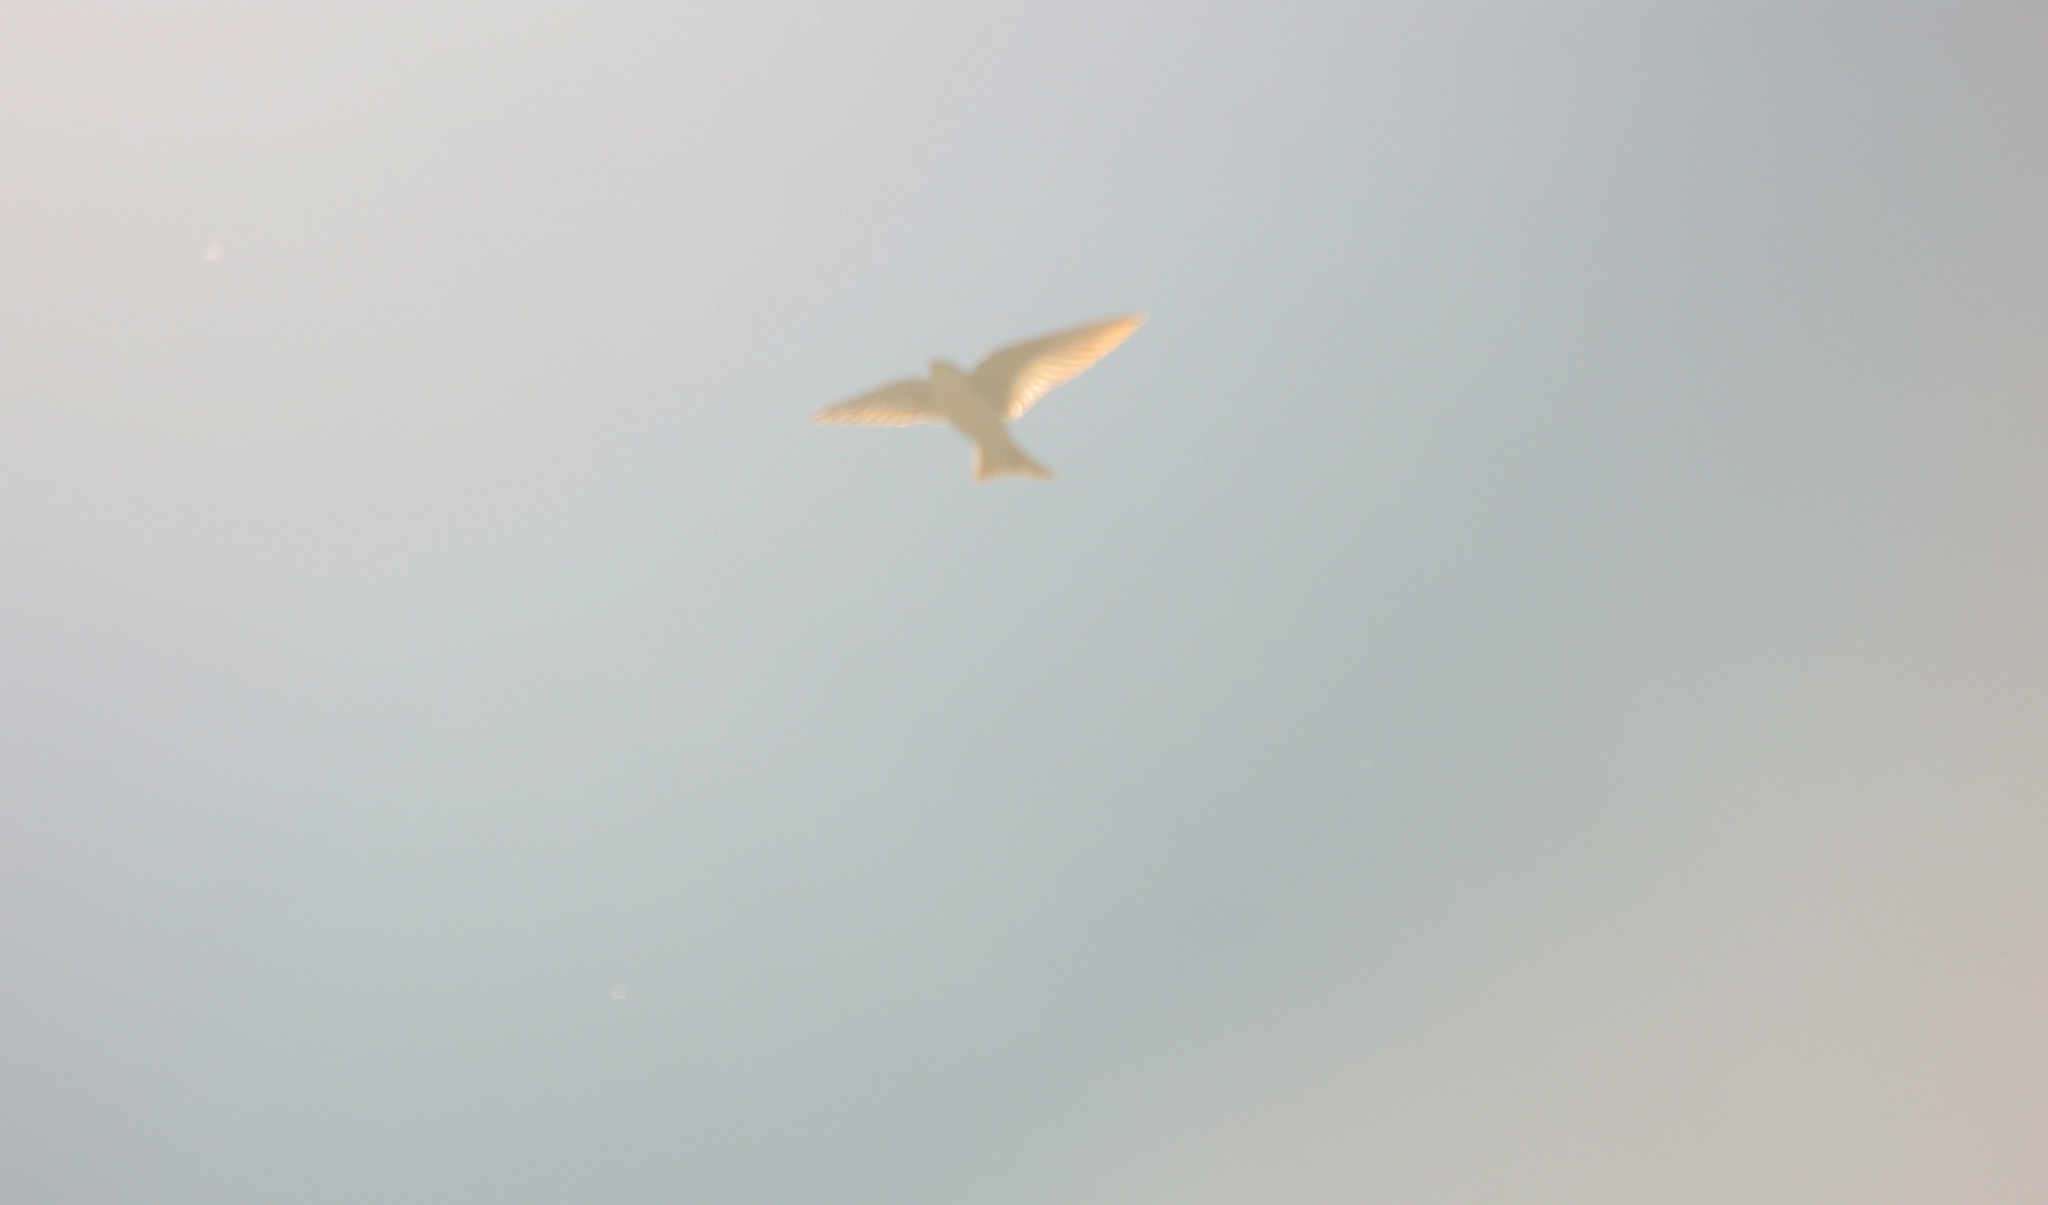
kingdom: Animalia
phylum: Chordata
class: Aves
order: Passeriformes
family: Hirundinidae
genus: Tachycineta
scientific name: Tachycineta bicolor
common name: Tree swallow
